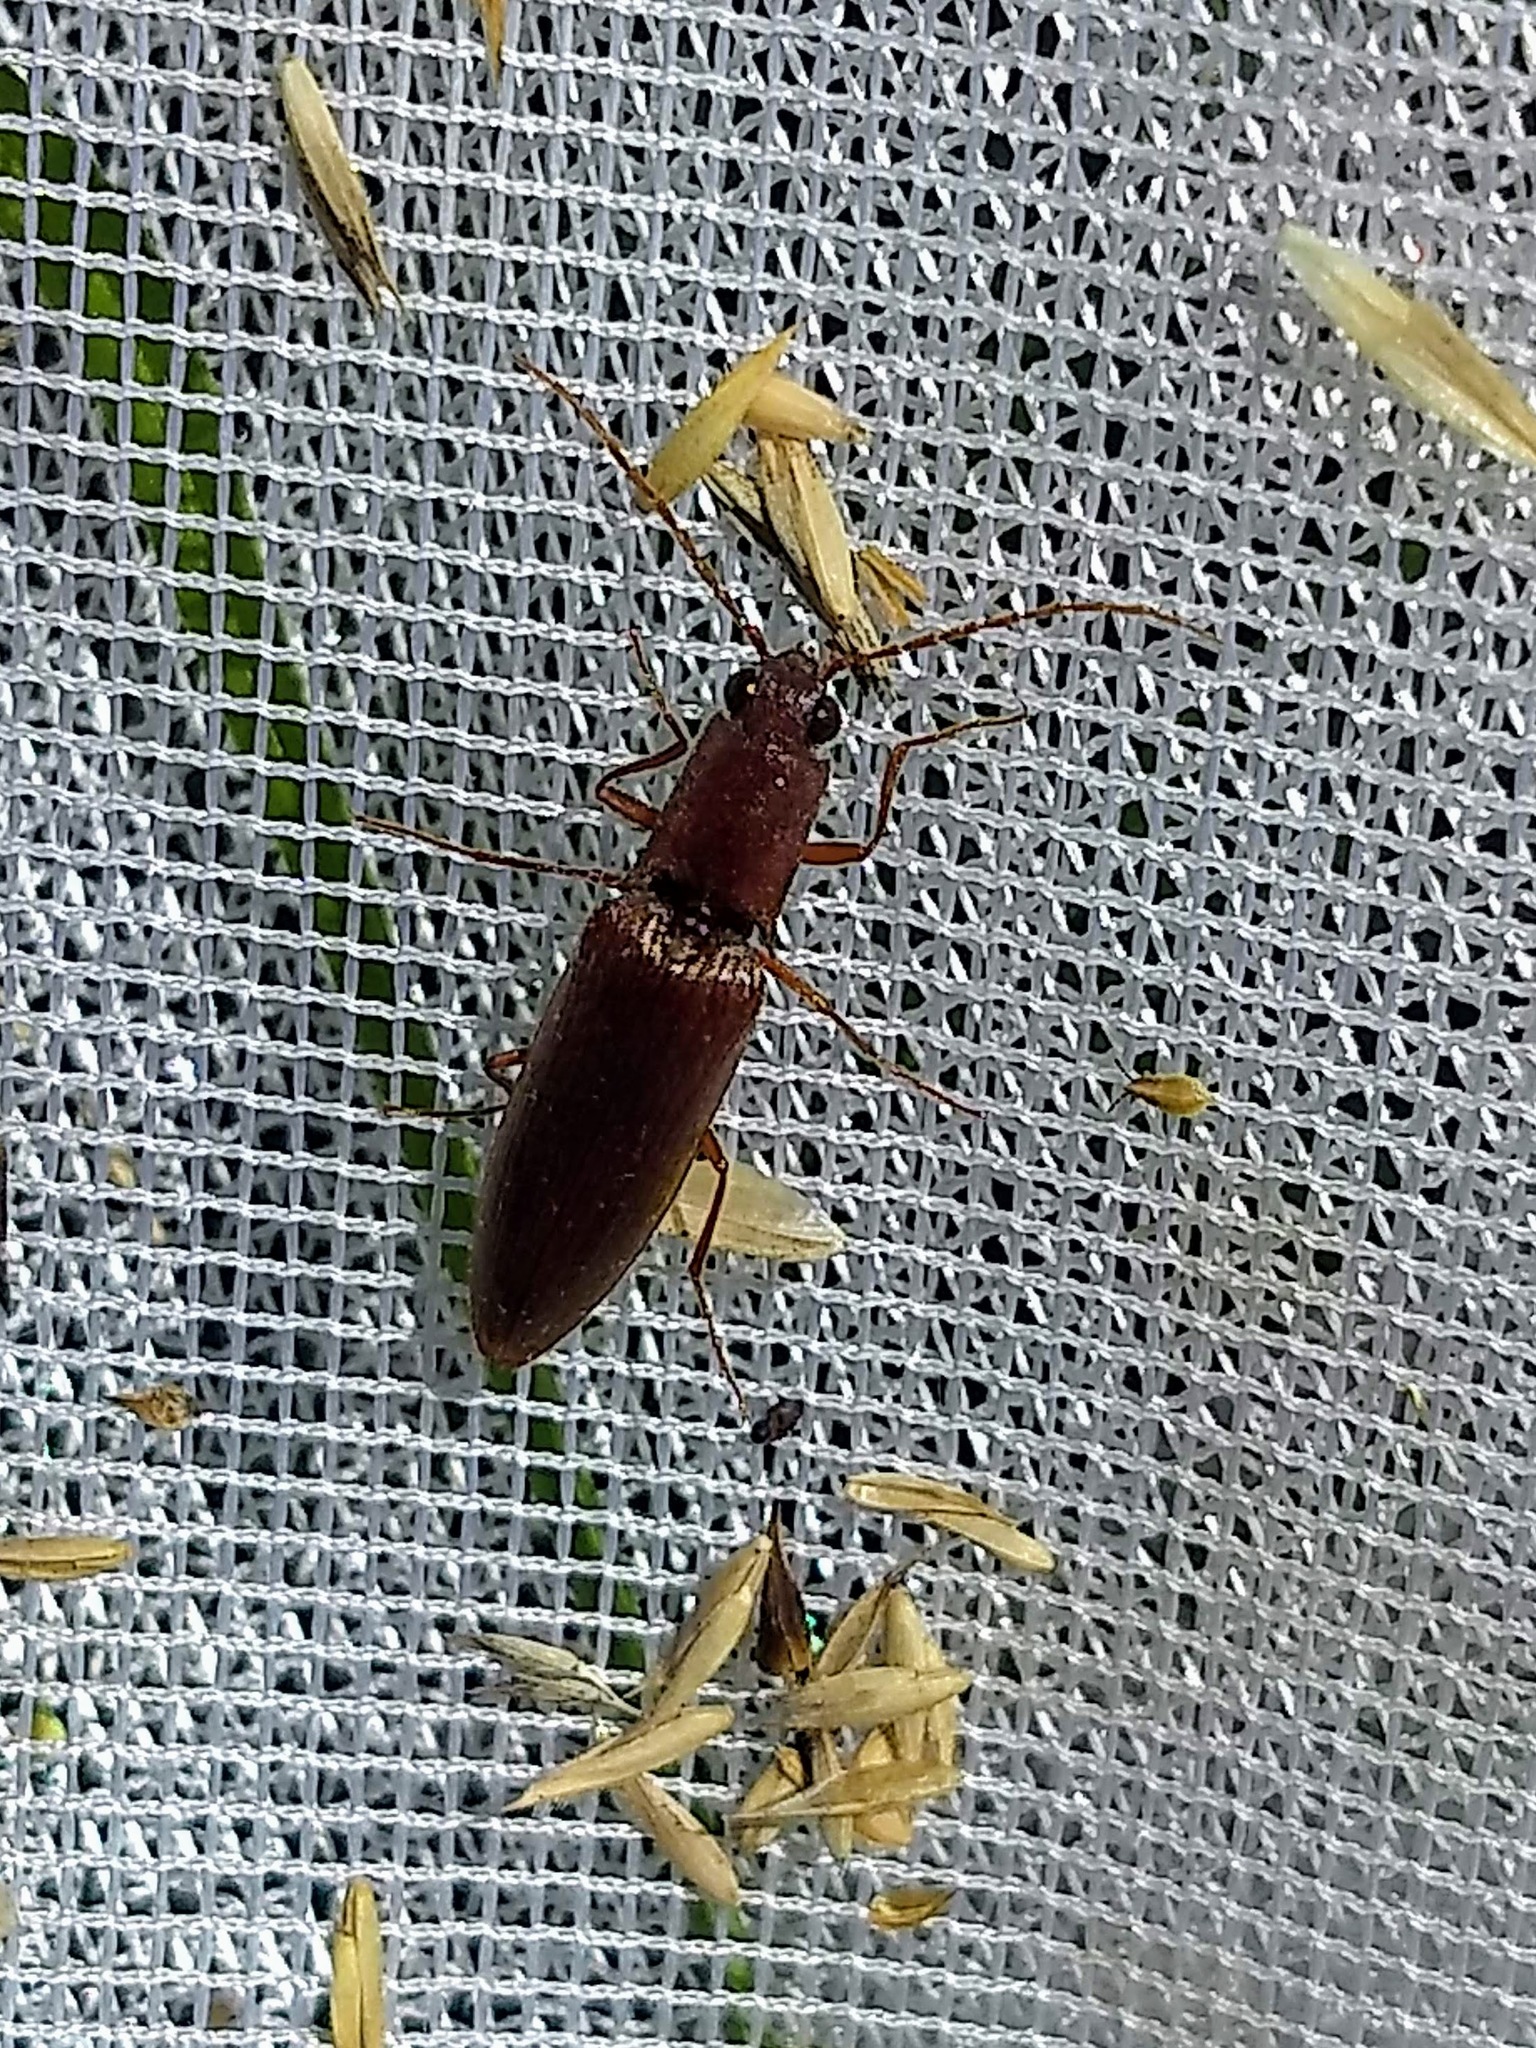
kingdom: Animalia
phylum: Arthropoda
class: Insecta
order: Coleoptera
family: Elateridae
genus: Proludius
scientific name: Proludius pyrros
